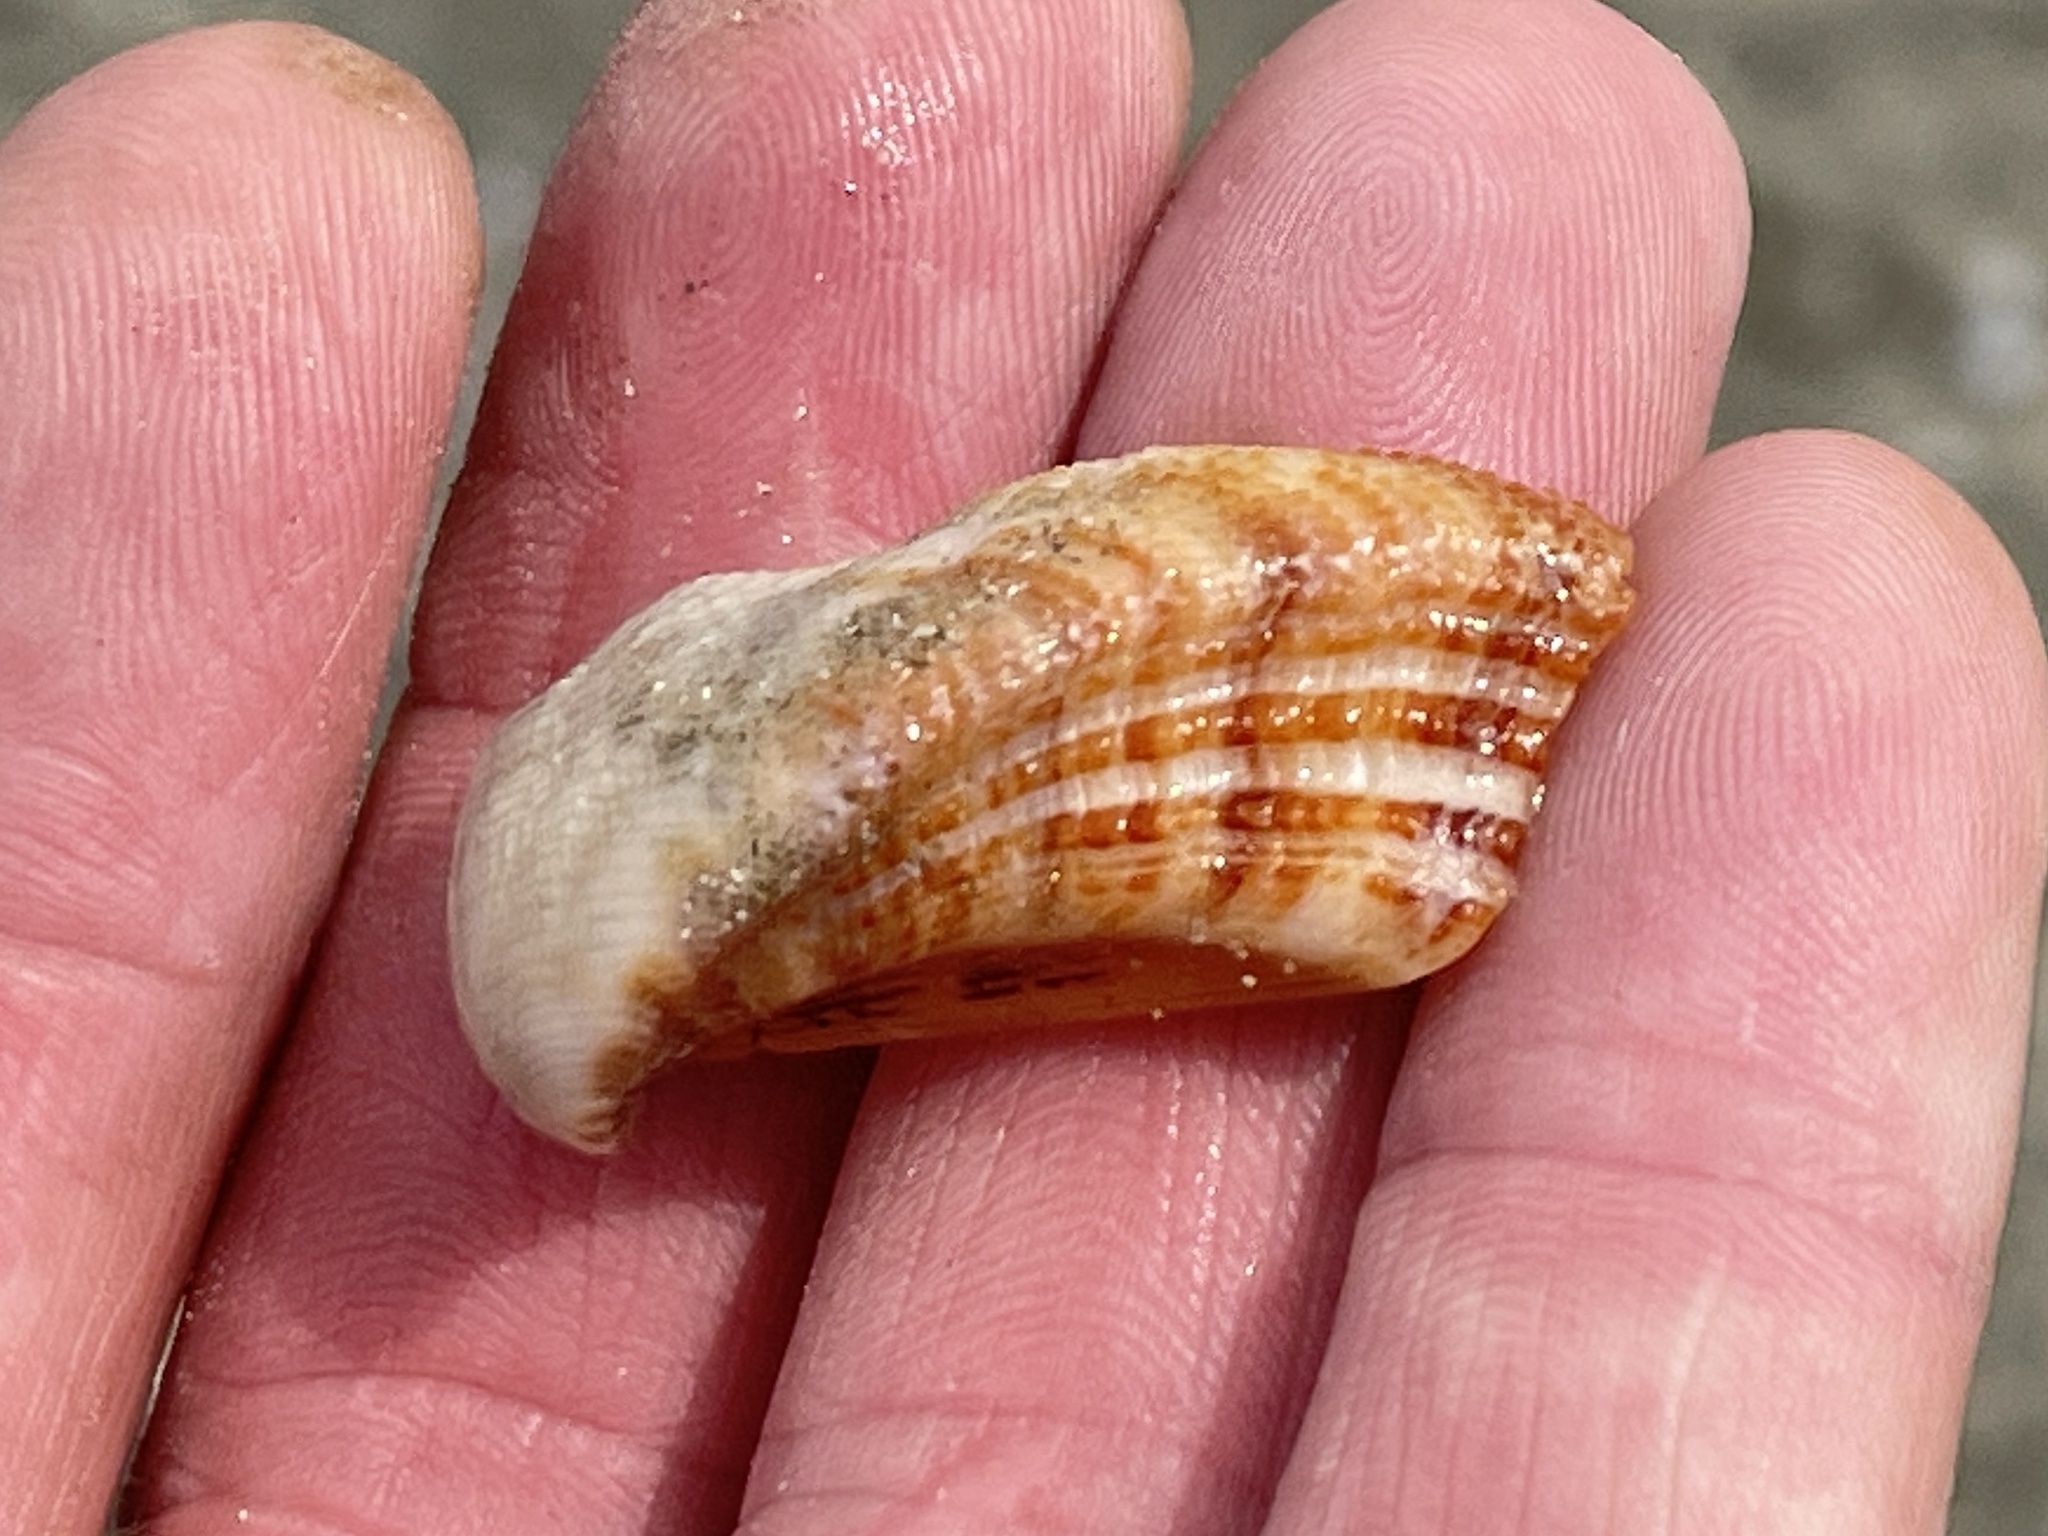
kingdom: Animalia
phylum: Mollusca
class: Bivalvia
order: Arcida
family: Arcidae
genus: Lamarcka
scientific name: Lamarcka imbricata
